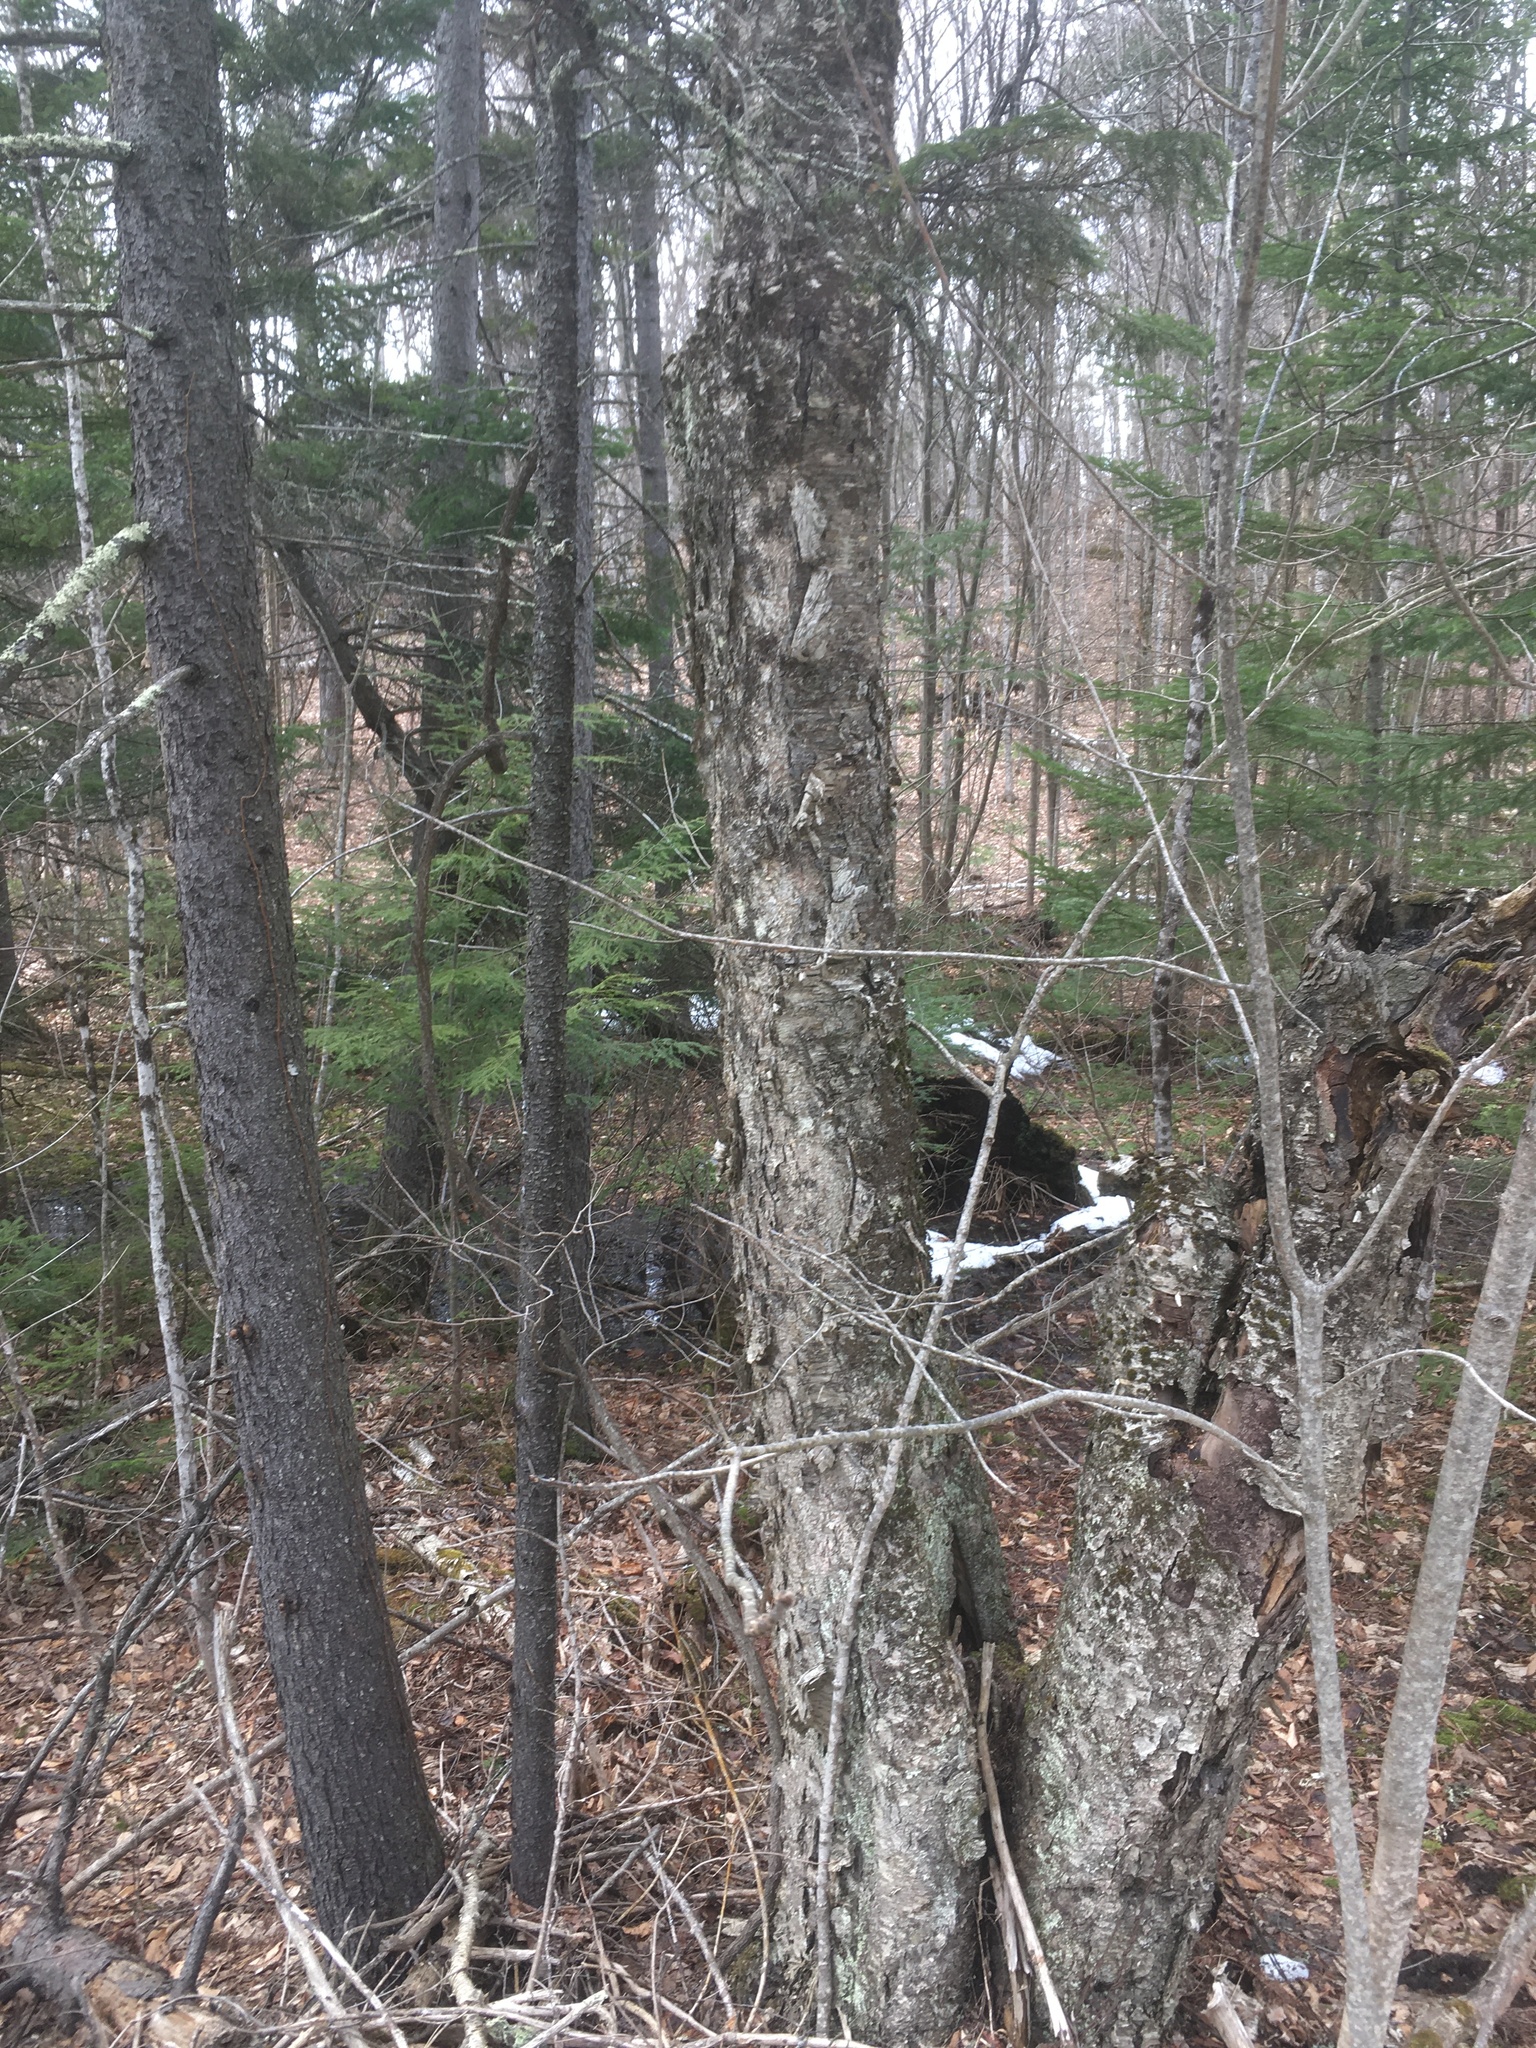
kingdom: Plantae
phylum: Tracheophyta
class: Magnoliopsida
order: Fagales
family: Betulaceae
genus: Betula
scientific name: Betula alleghaniensis
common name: Yellow birch
